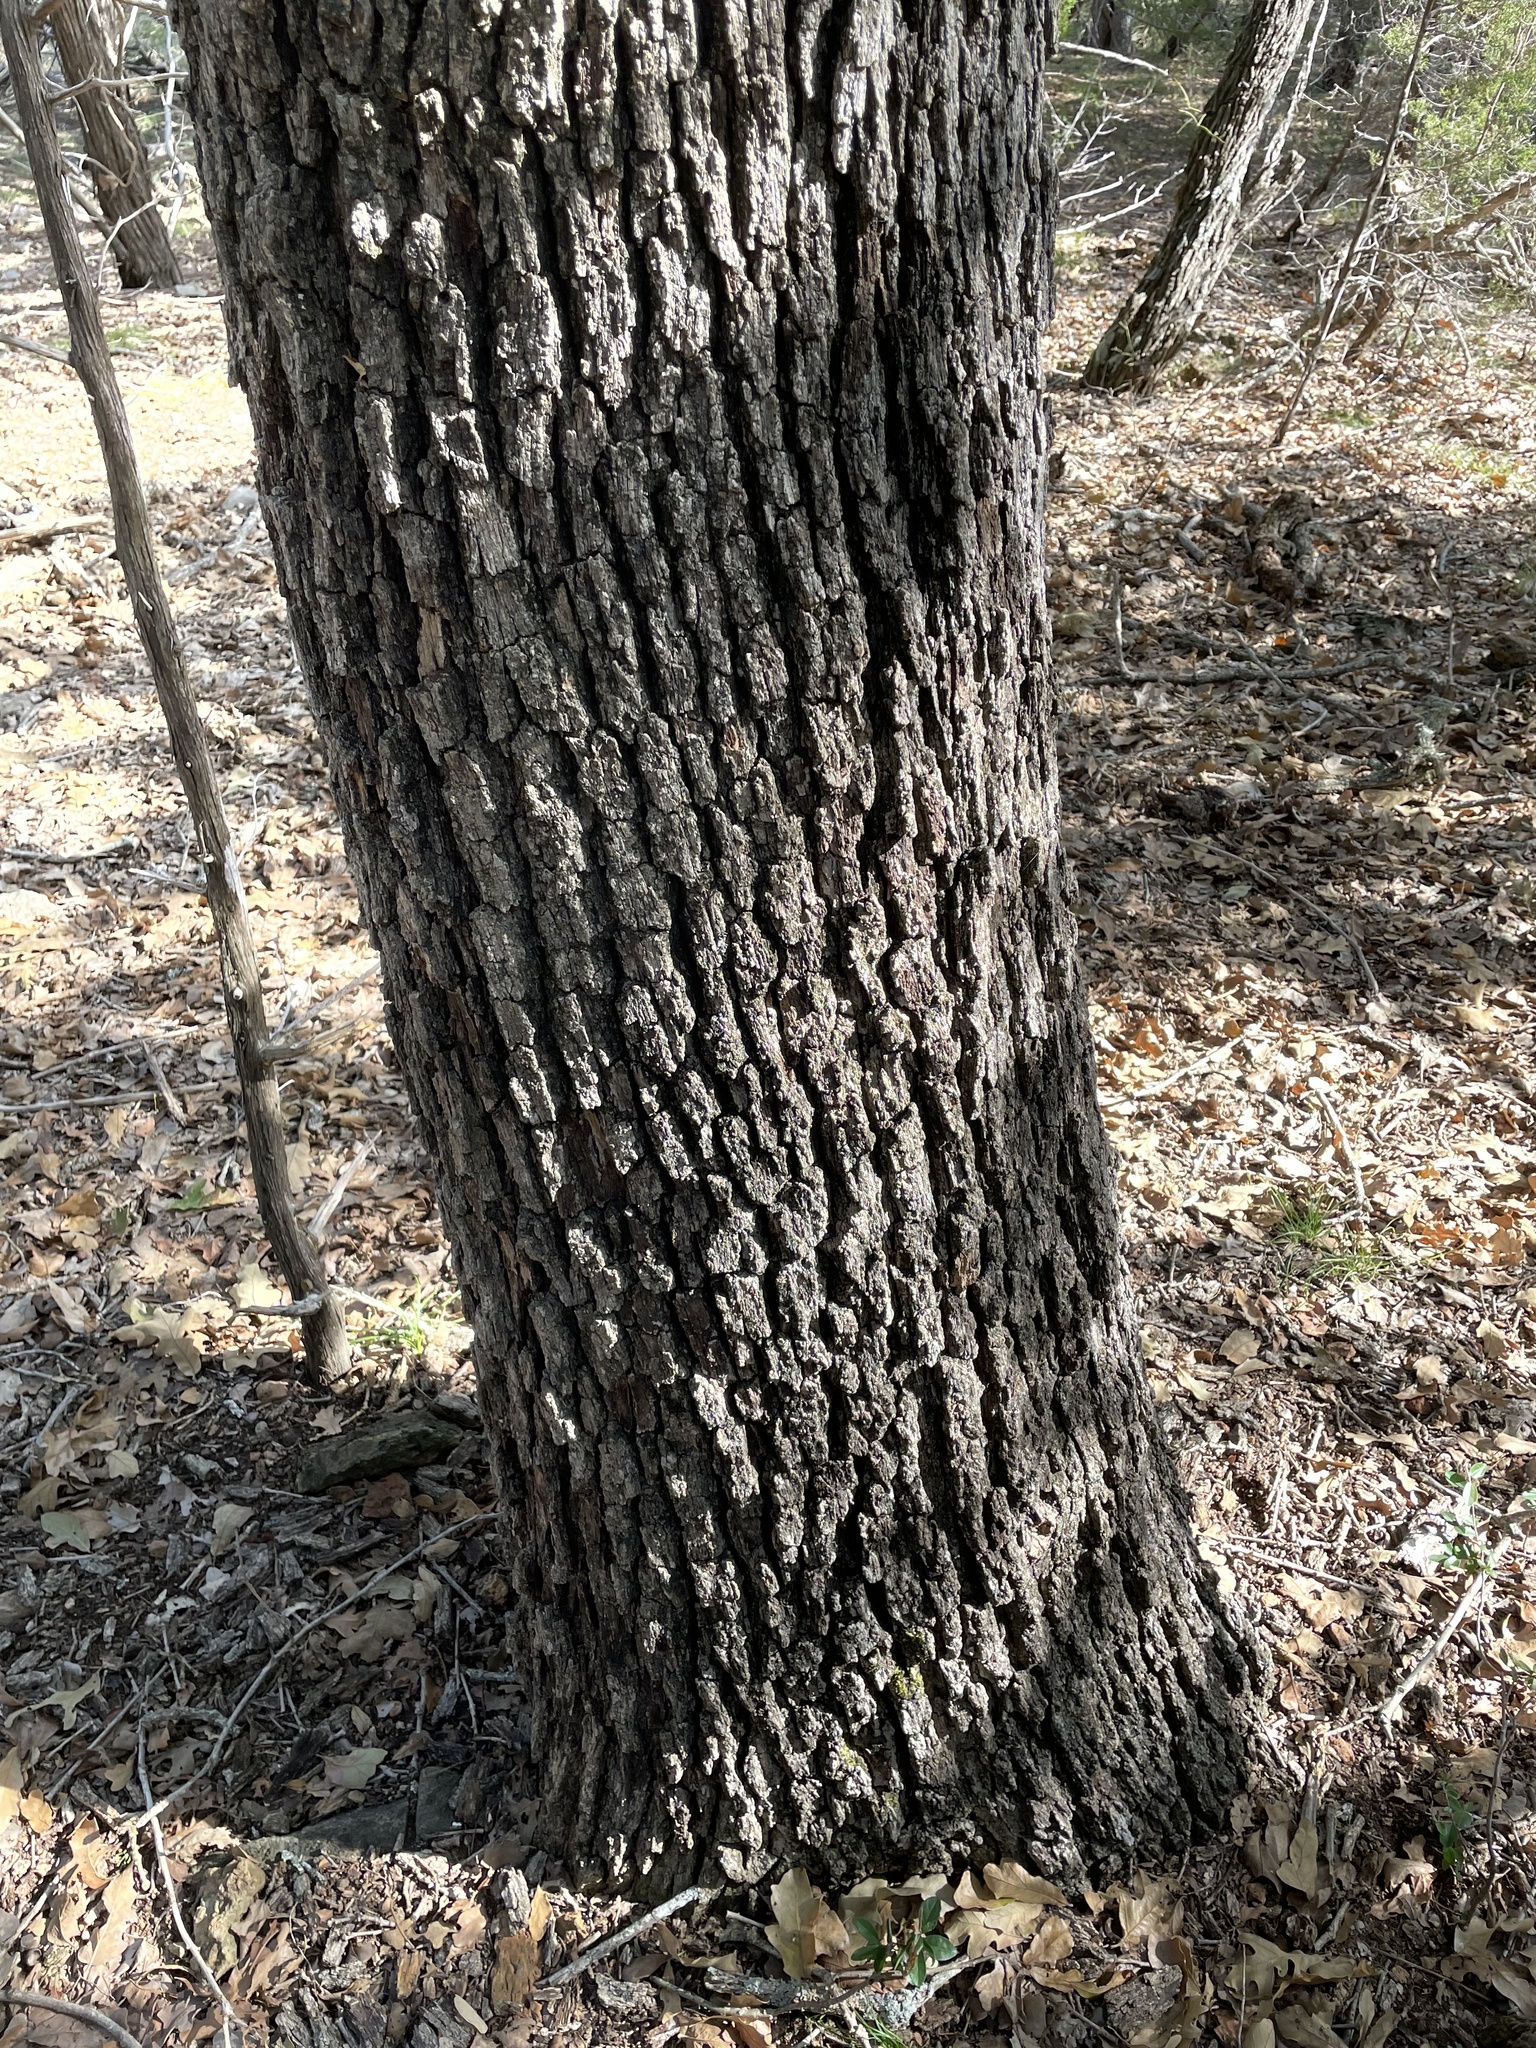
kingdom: Plantae
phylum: Tracheophyta
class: Magnoliopsida
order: Fagales
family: Fagaceae
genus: Quercus
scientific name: Quercus stellata
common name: Post oak
